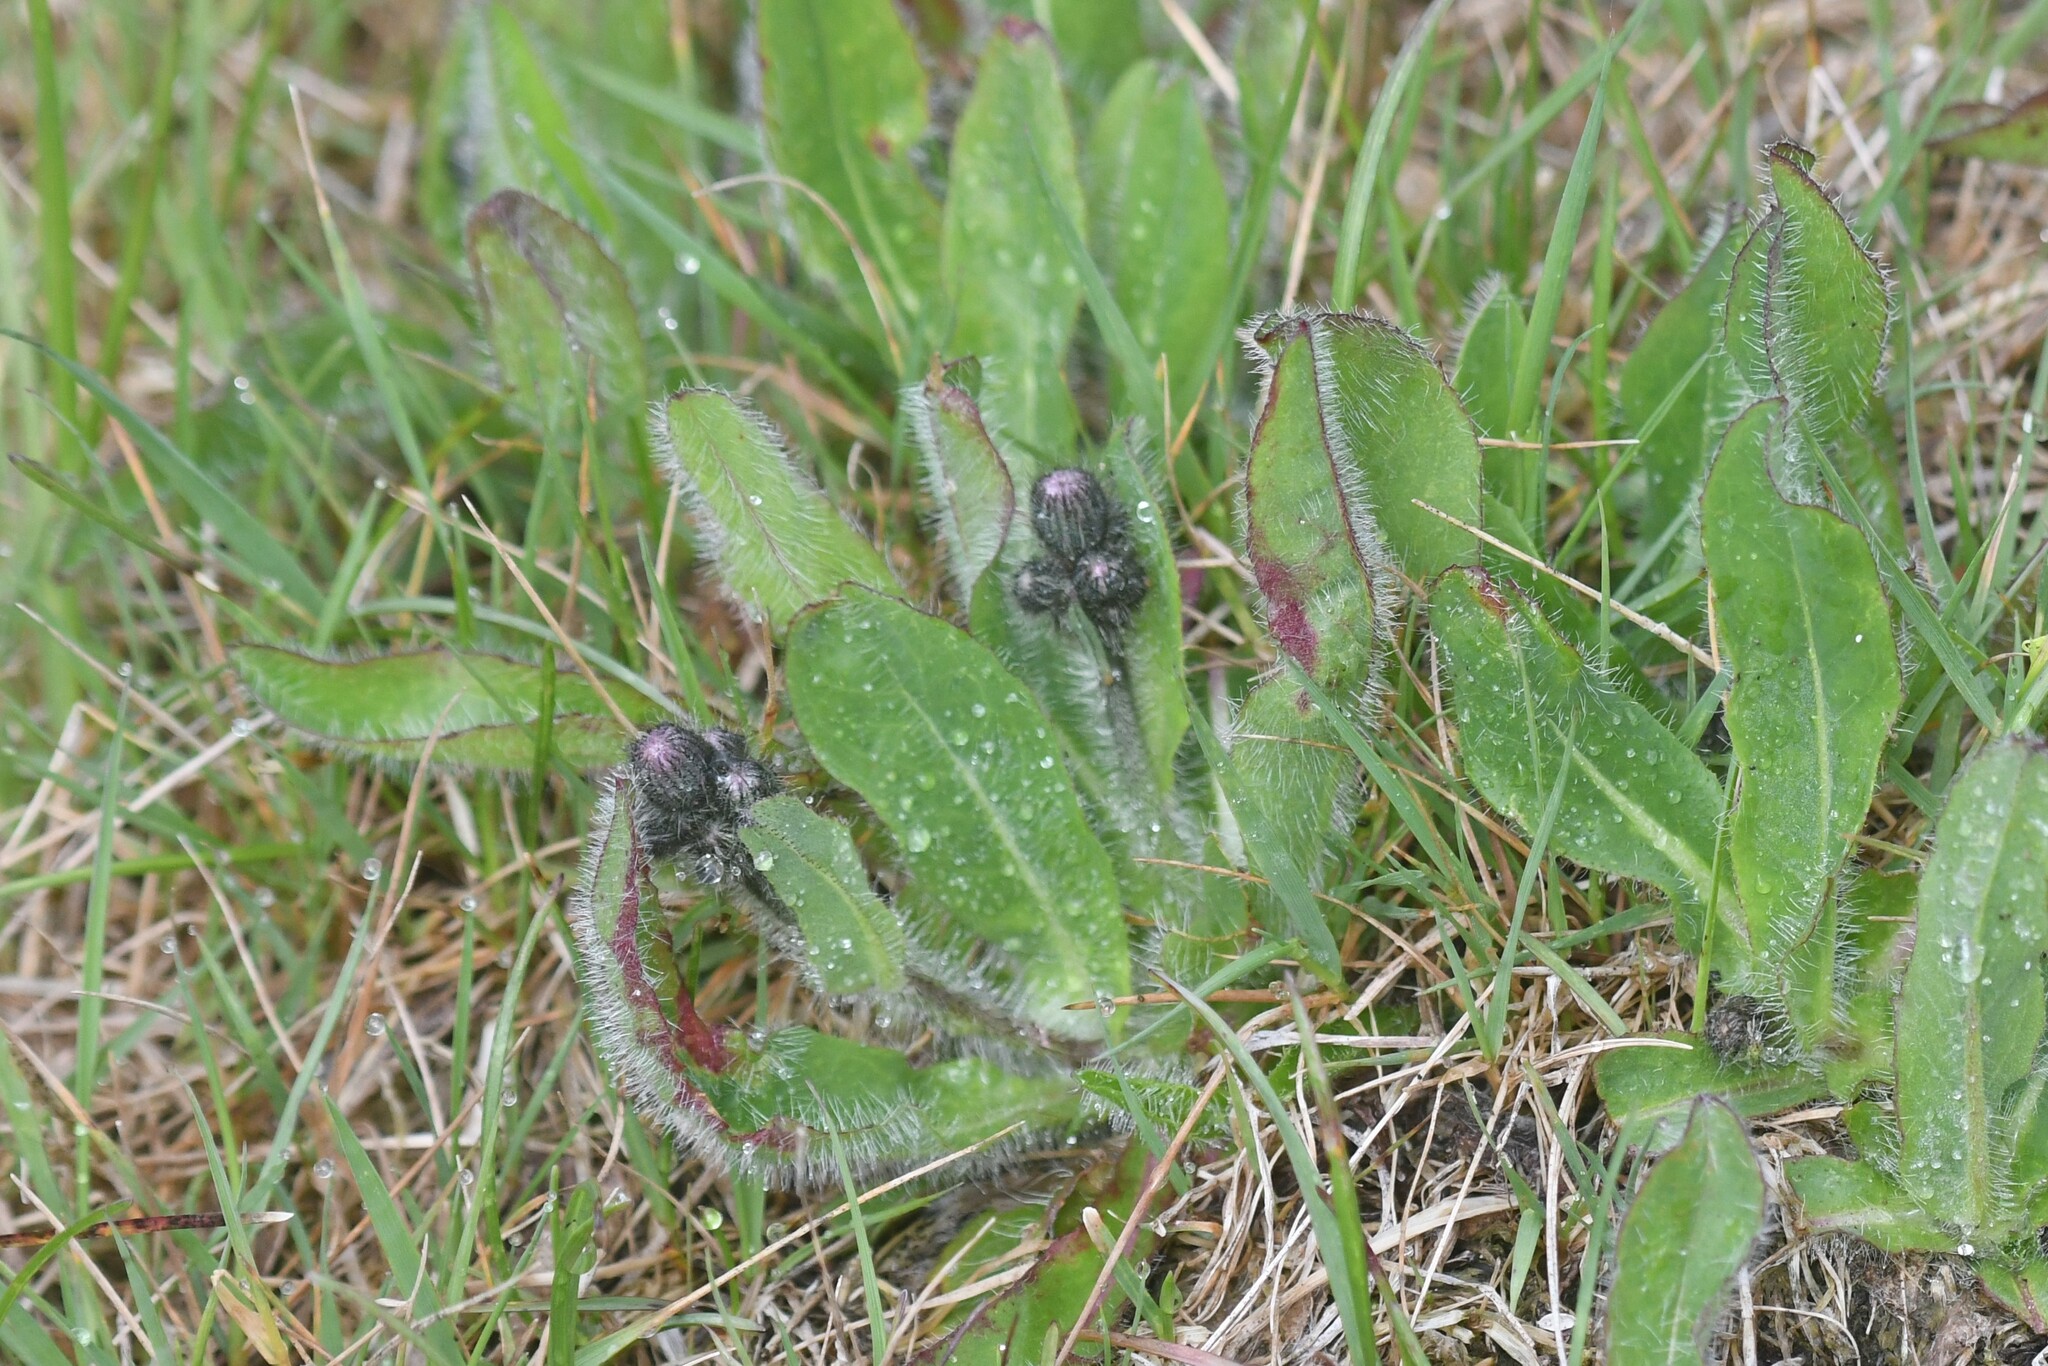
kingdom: Plantae
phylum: Tracheophyta
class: Magnoliopsida
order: Asterales
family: Asteraceae
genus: Pilosella
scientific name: Pilosella aurantiaca
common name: Fox-and-cubs
